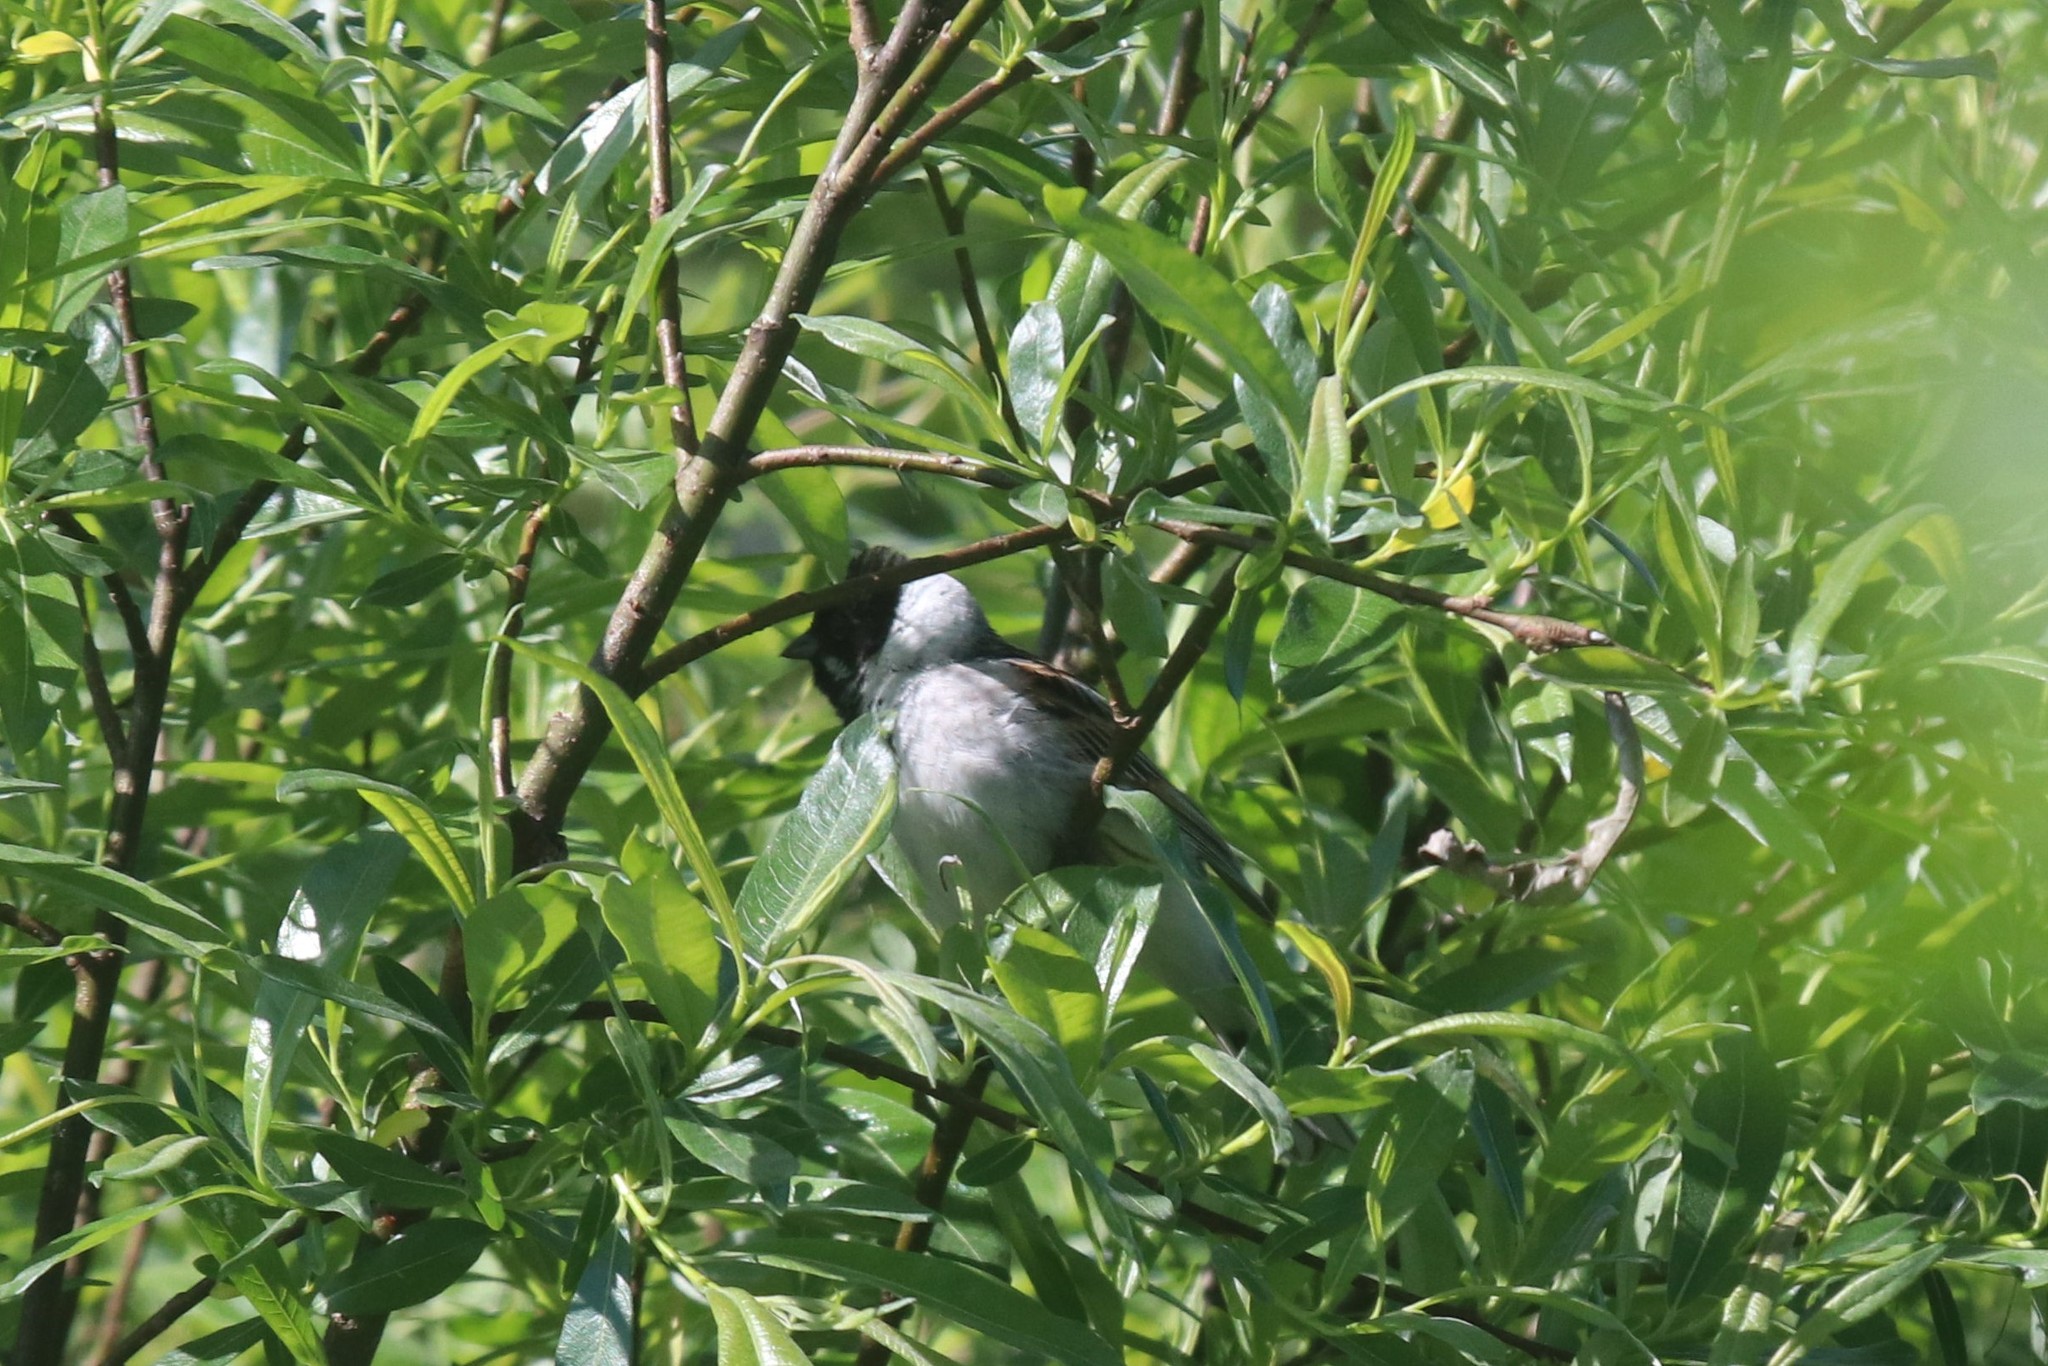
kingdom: Animalia
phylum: Chordata
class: Aves
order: Passeriformes
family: Emberizidae
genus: Emberiza
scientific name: Emberiza schoeniclus
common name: Reed bunting
